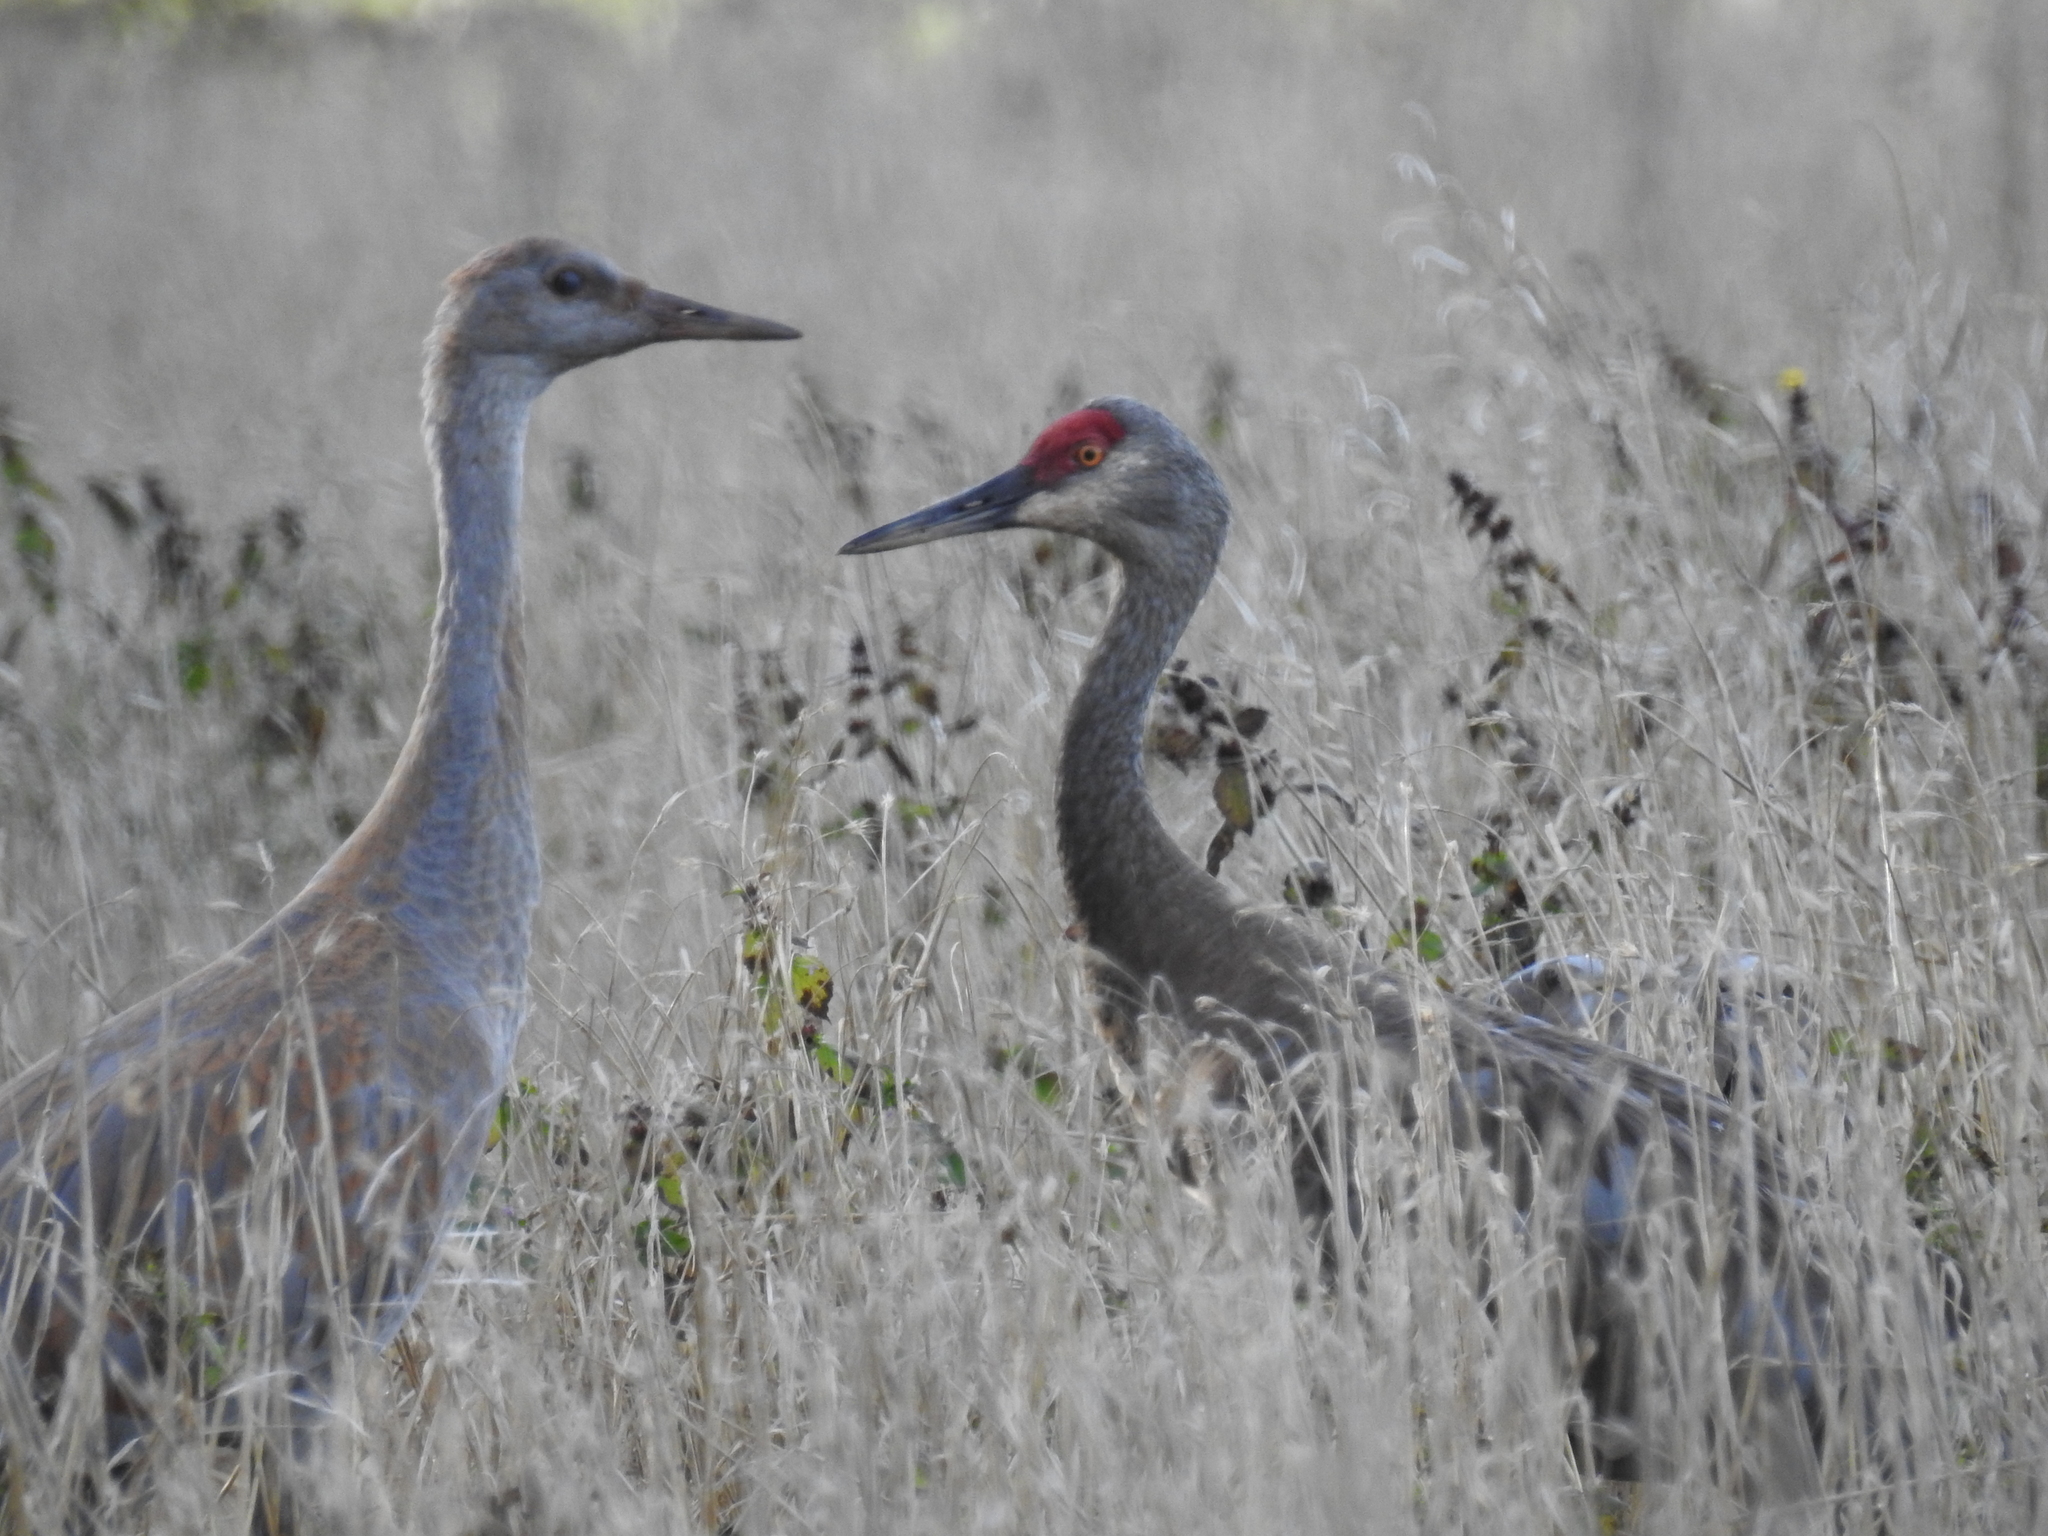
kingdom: Animalia
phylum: Chordata
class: Aves
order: Gruiformes
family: Gruidae
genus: Grus
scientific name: Grus canadensis
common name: Sandhill crane
